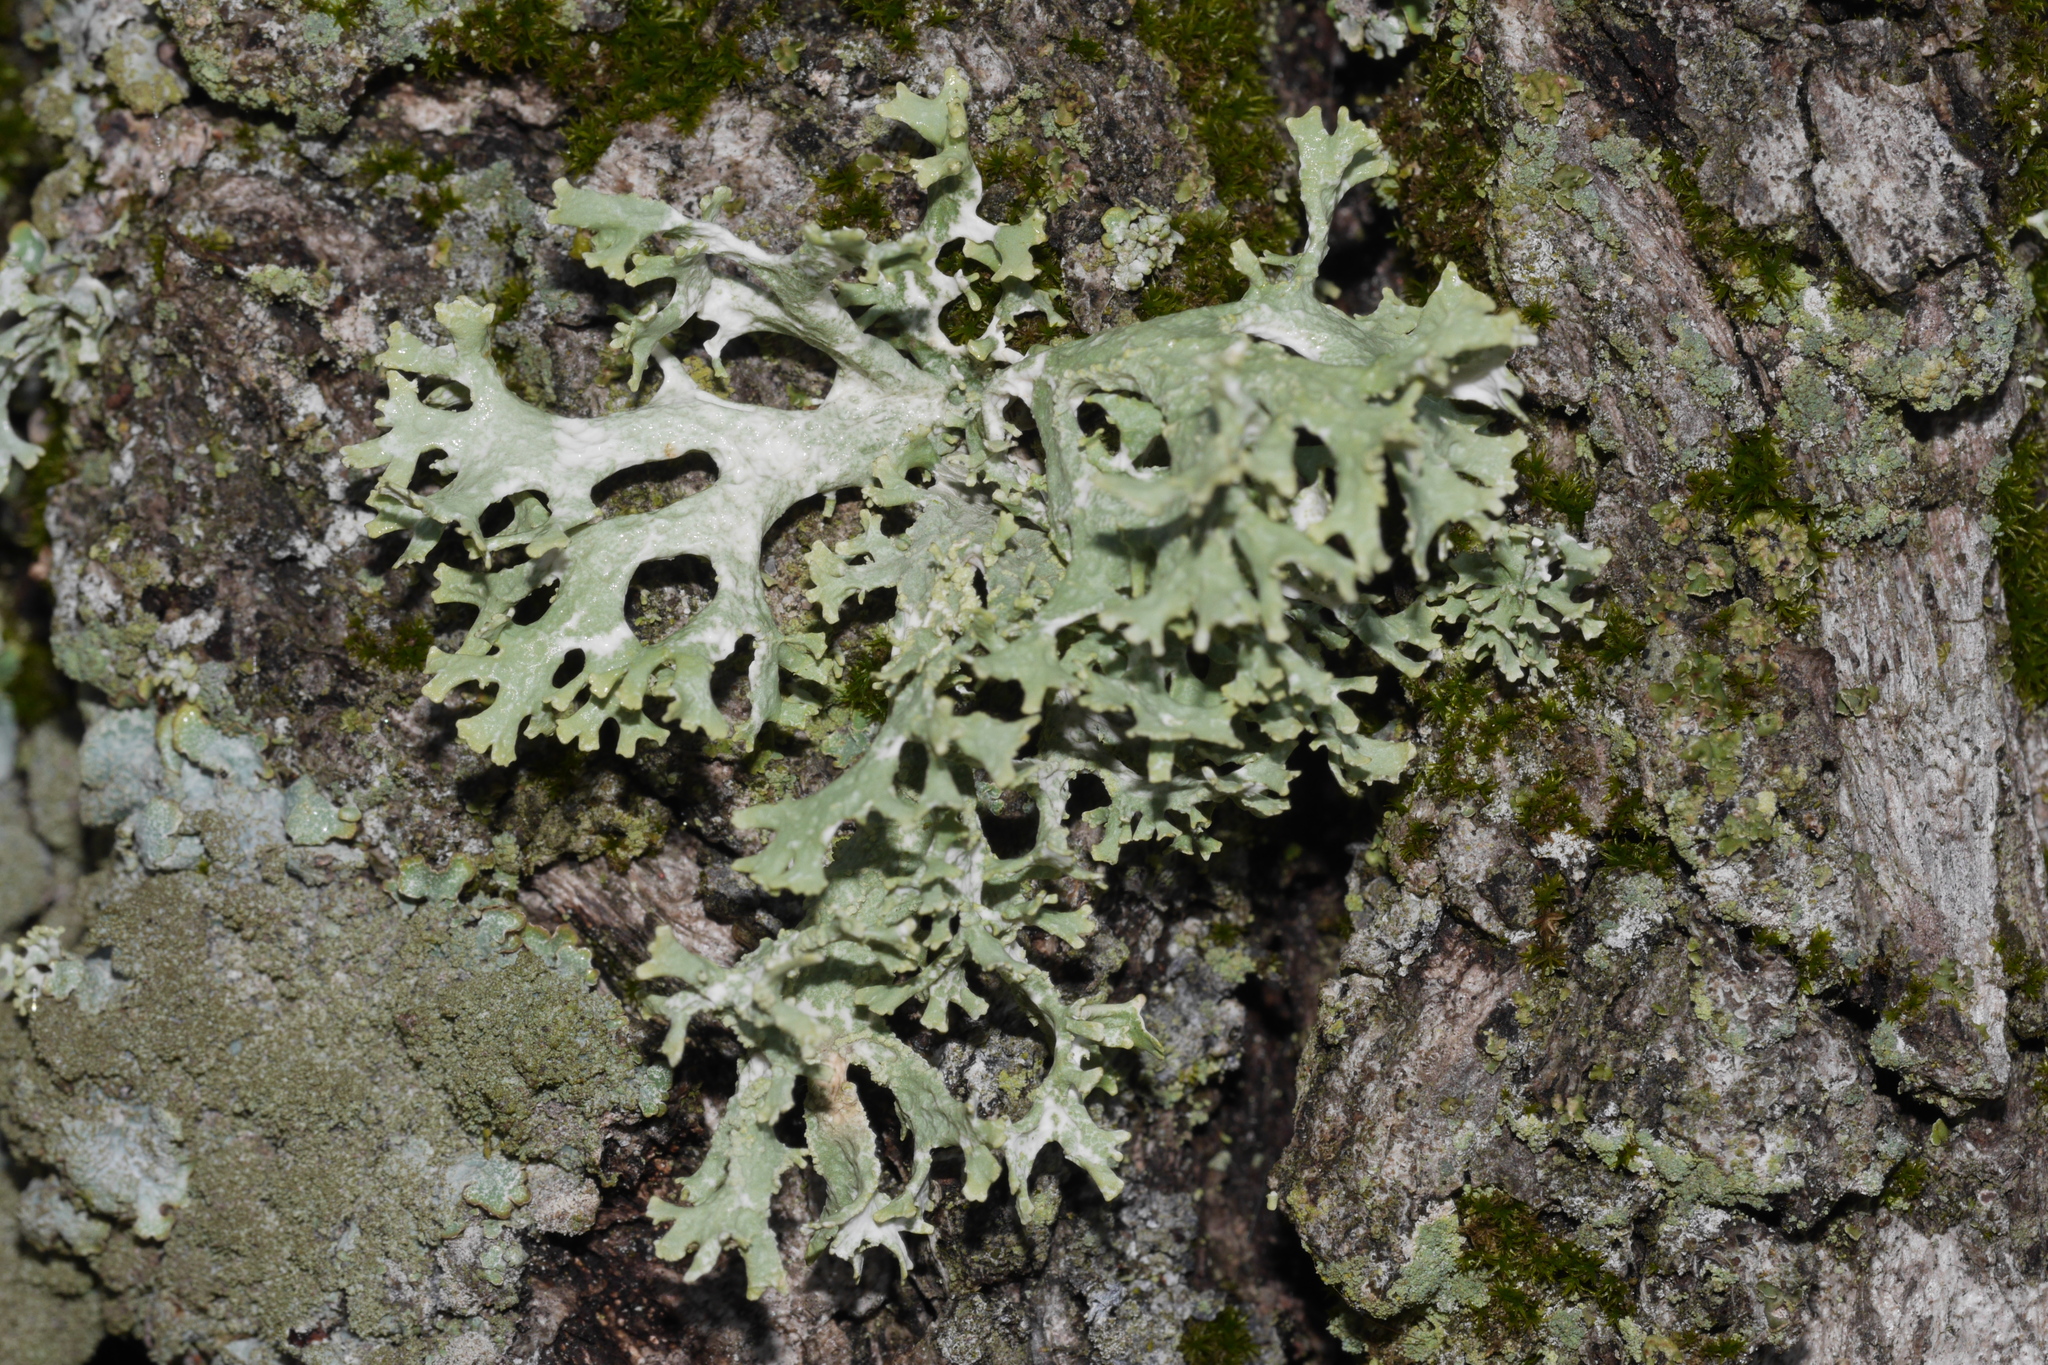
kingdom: Fungi
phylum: Ascomycota
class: Lecanoromycetes
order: Lecanorales
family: Parmeliaceae
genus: Evernia
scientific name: Evernia prunastri
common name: Oak moss
